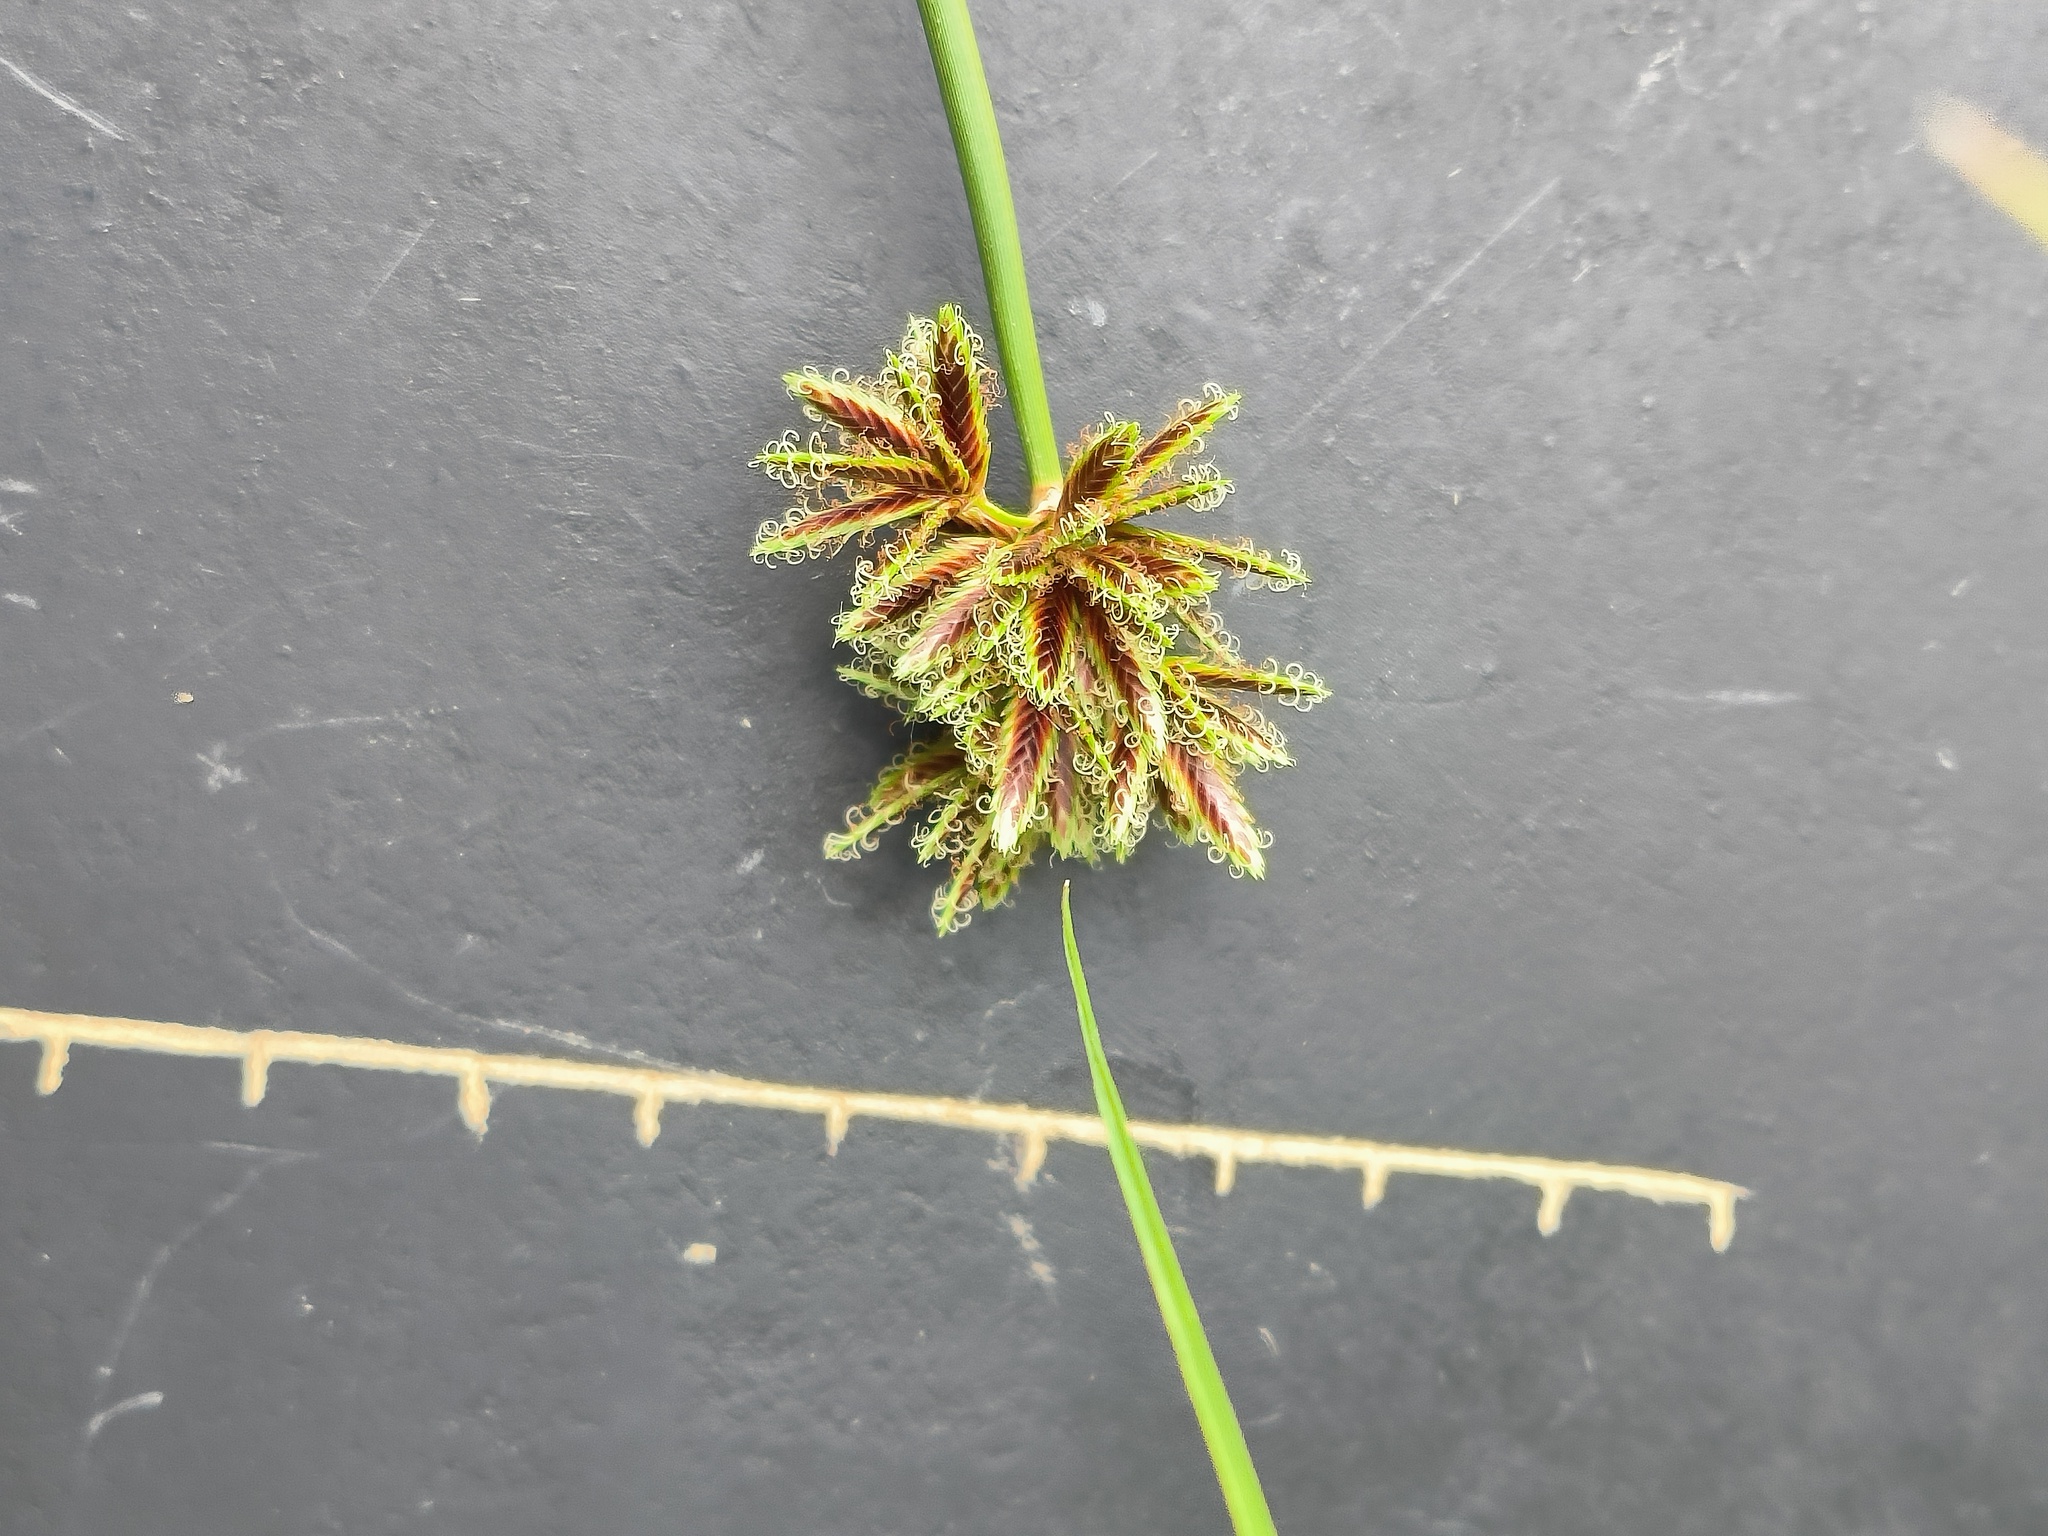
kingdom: Plantae
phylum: Tracheophyta
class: Liliopsida
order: Poales
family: Cyperaceae
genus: Cyperus
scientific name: Cyperus marginatus
